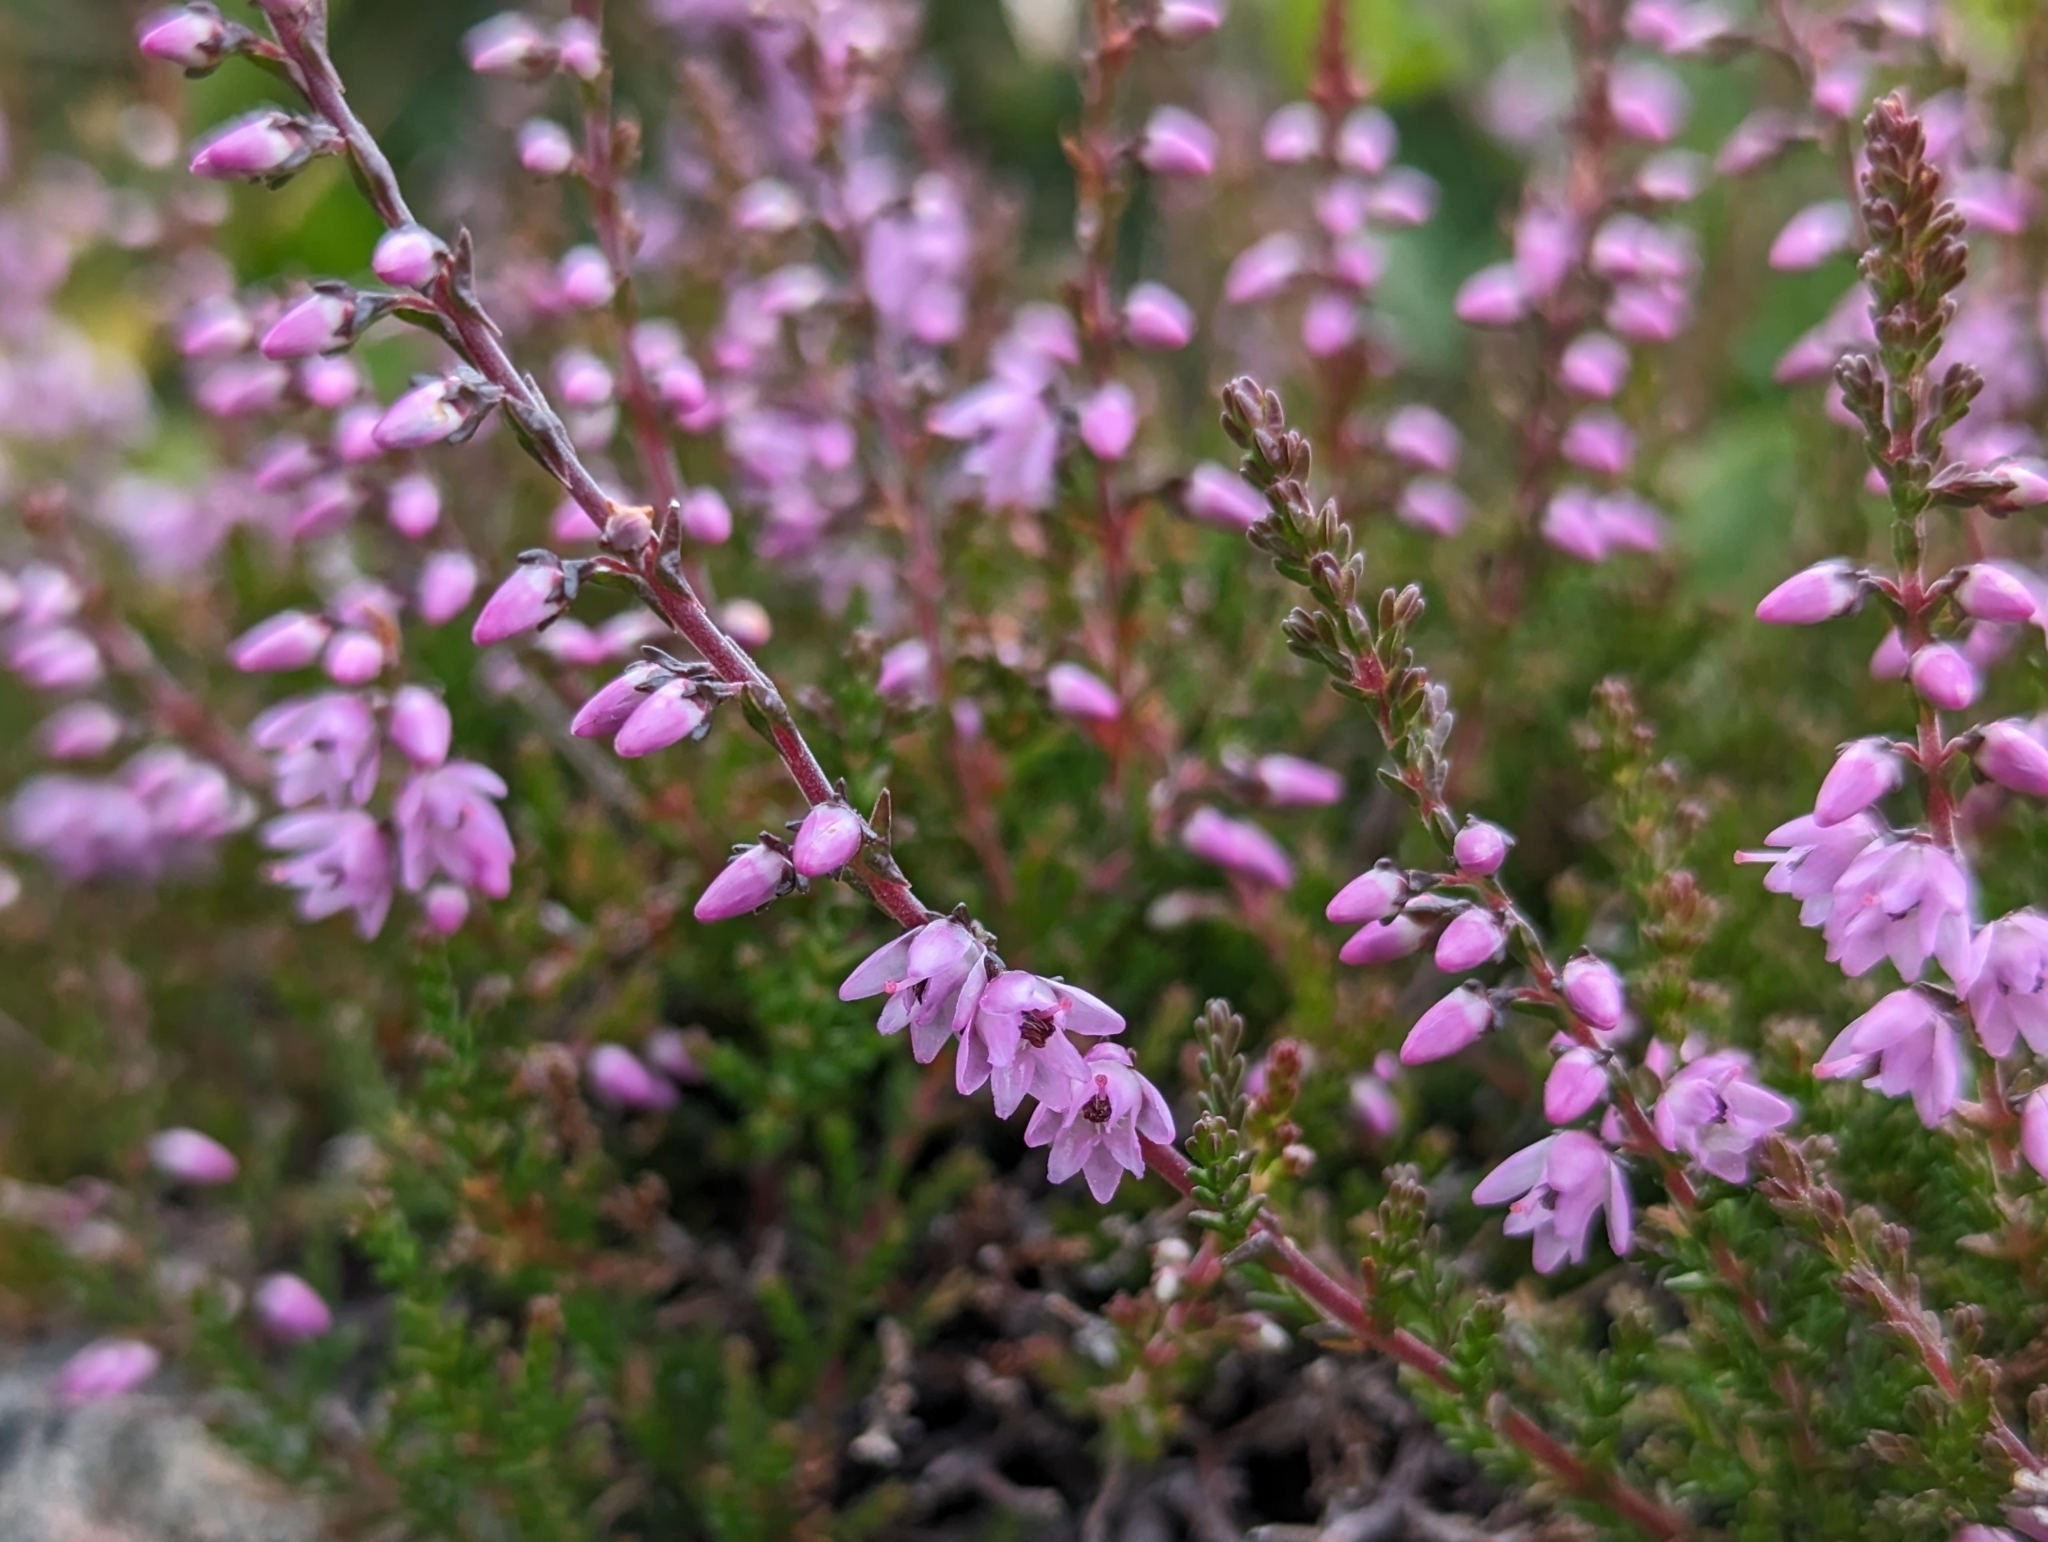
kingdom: Plantae
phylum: Tracheophyta
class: Magnoliopsida
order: Ericales
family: Ericaceae
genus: Calluna
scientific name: Calluna vulgaris
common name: Heather
